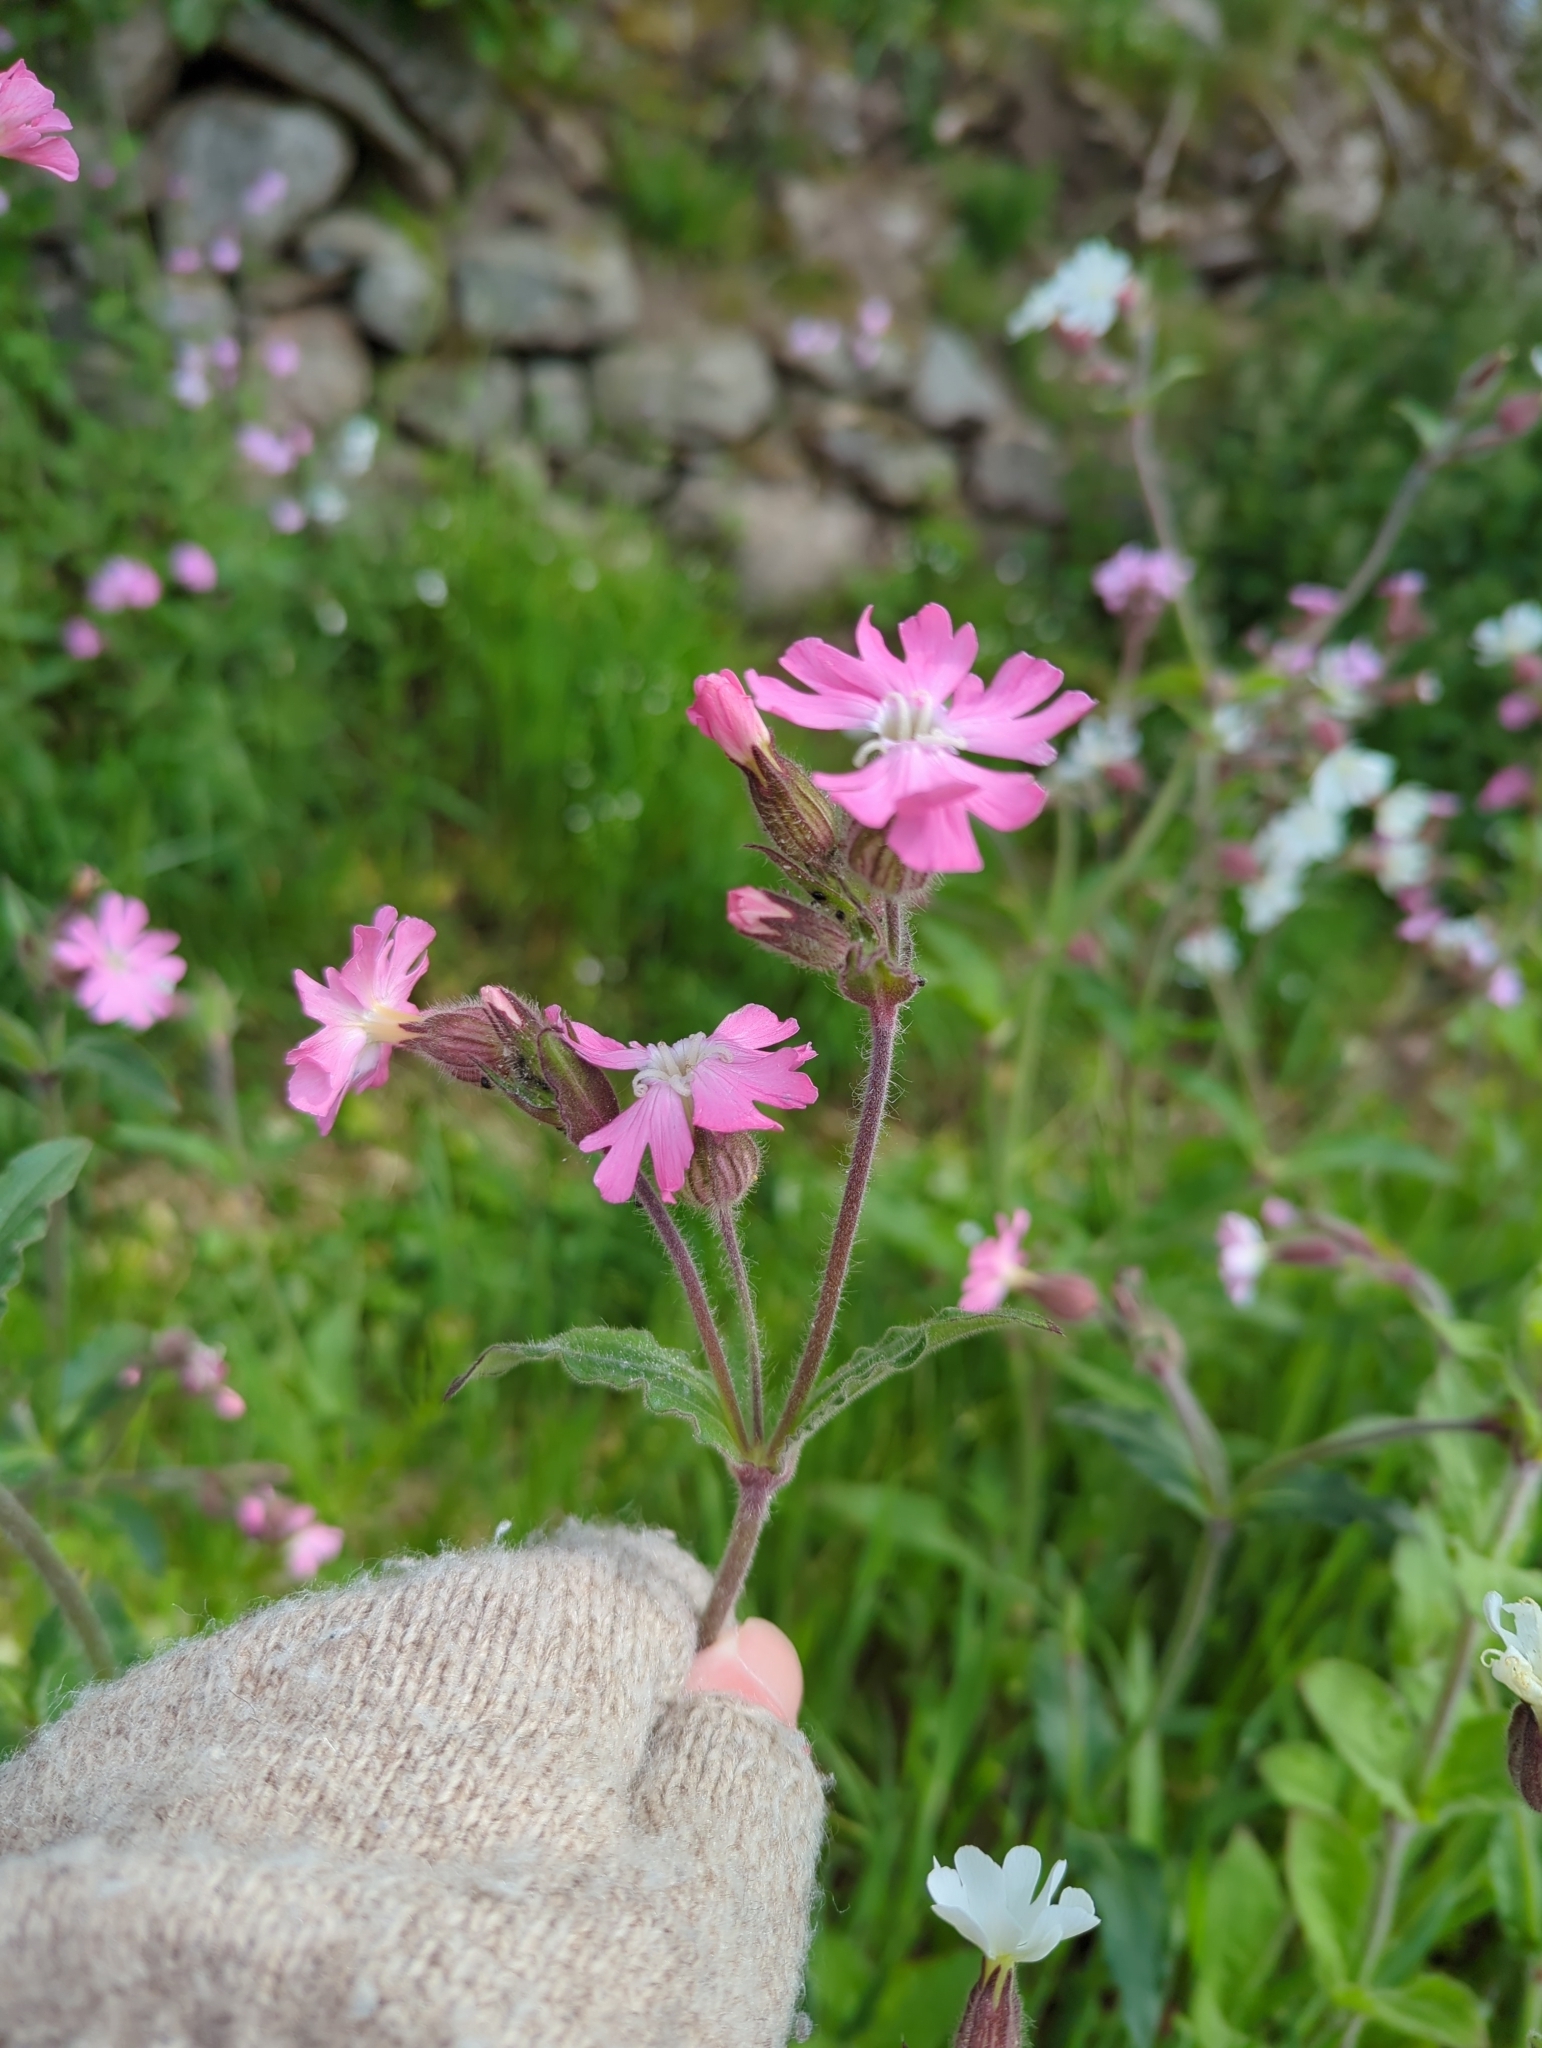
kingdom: Plantae
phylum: Tracheophyta
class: Magnoliopsida
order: Caryophyllales
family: Caryophyllaceae
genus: Silene
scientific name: Silene dioica
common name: Red campion
